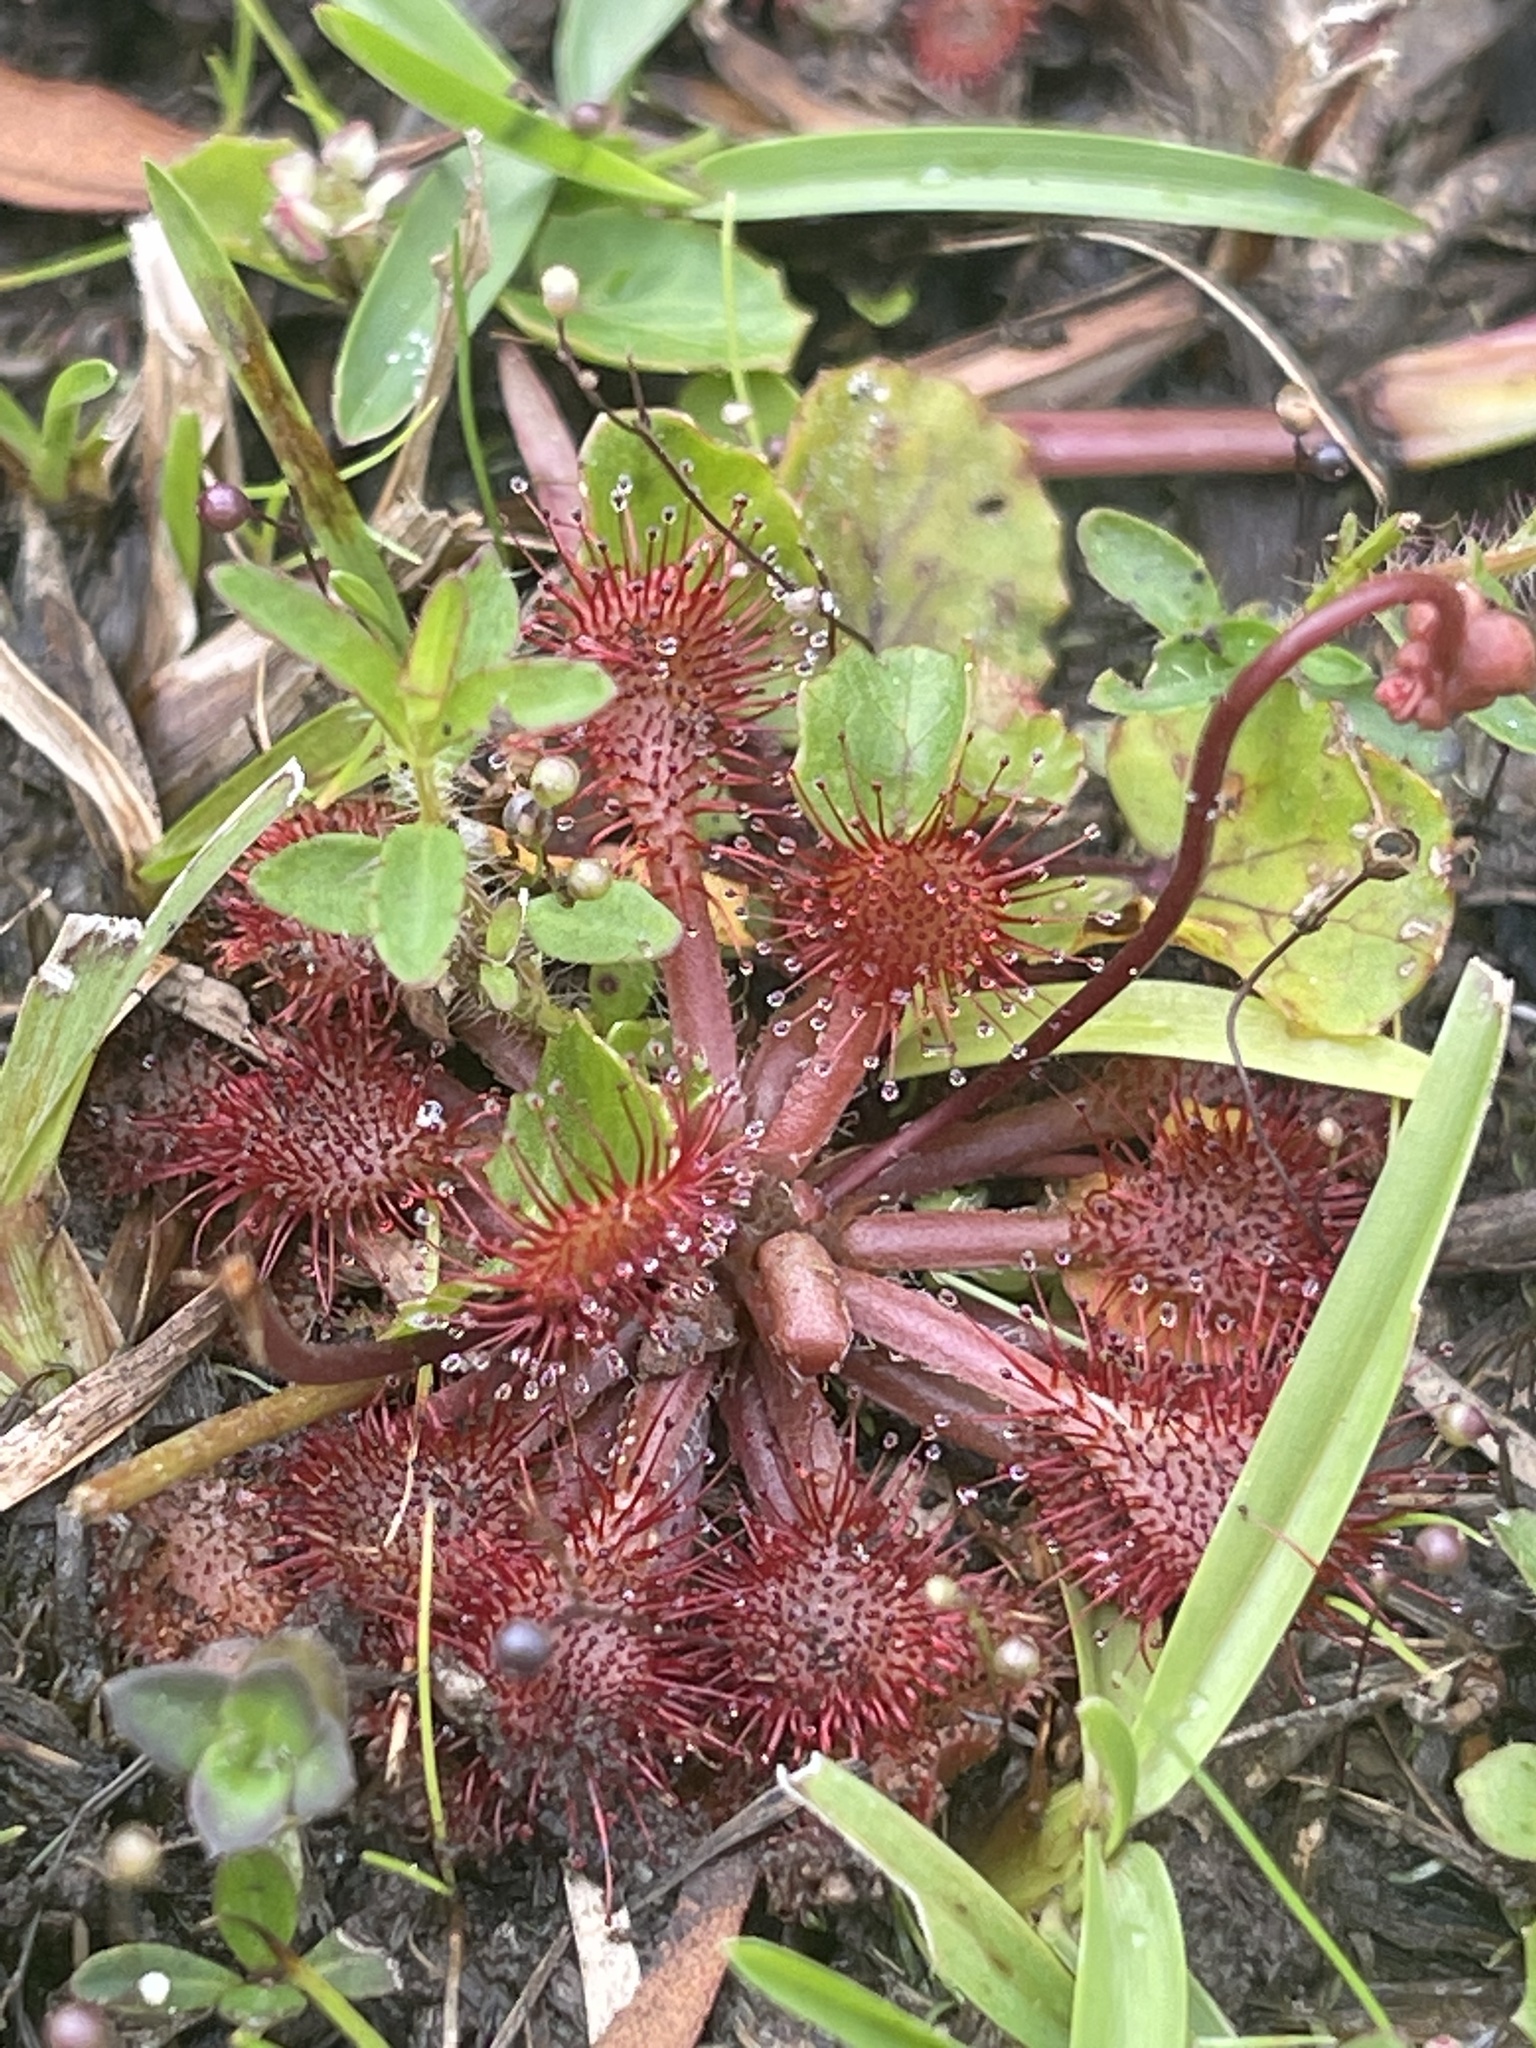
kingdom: Plantae
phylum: Tracheophyta
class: Magnoliopsida
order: Caryophyllales
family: Droseraceae
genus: Drosera
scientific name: Drosera capillaris
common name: Pink sundew
